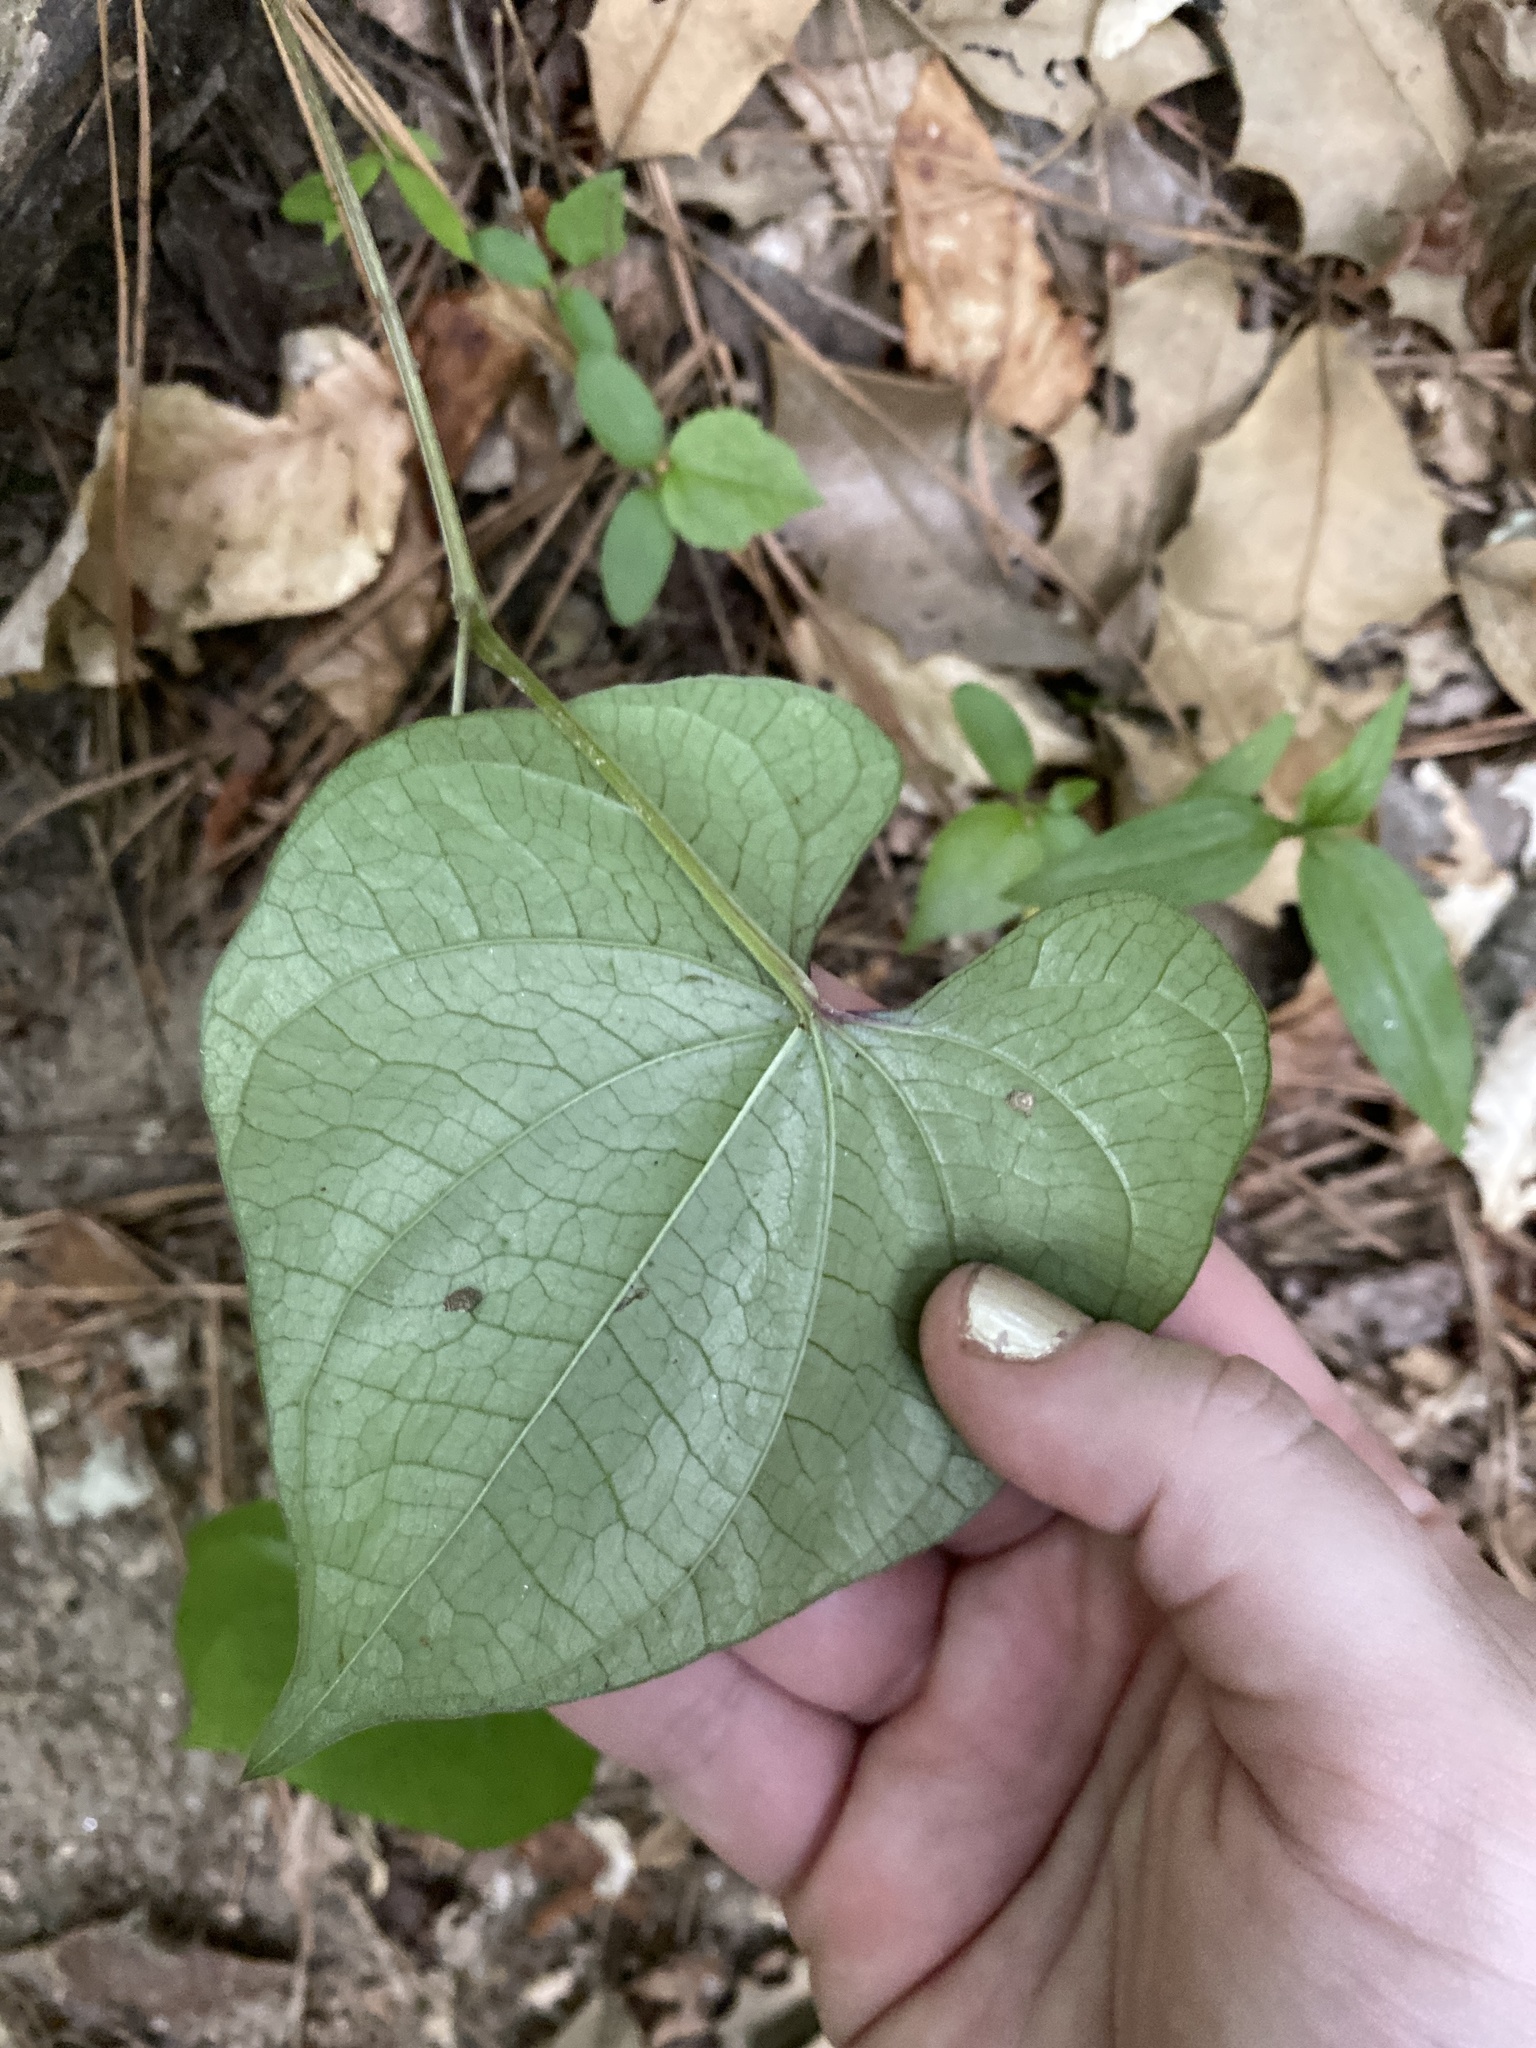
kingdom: Plantae
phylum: Tracheophyta
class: Liliopsida
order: Dioscoreales
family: Dioscoreaceae
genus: Dioscorea
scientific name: Dioscorea polystachya
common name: Chinese yam
